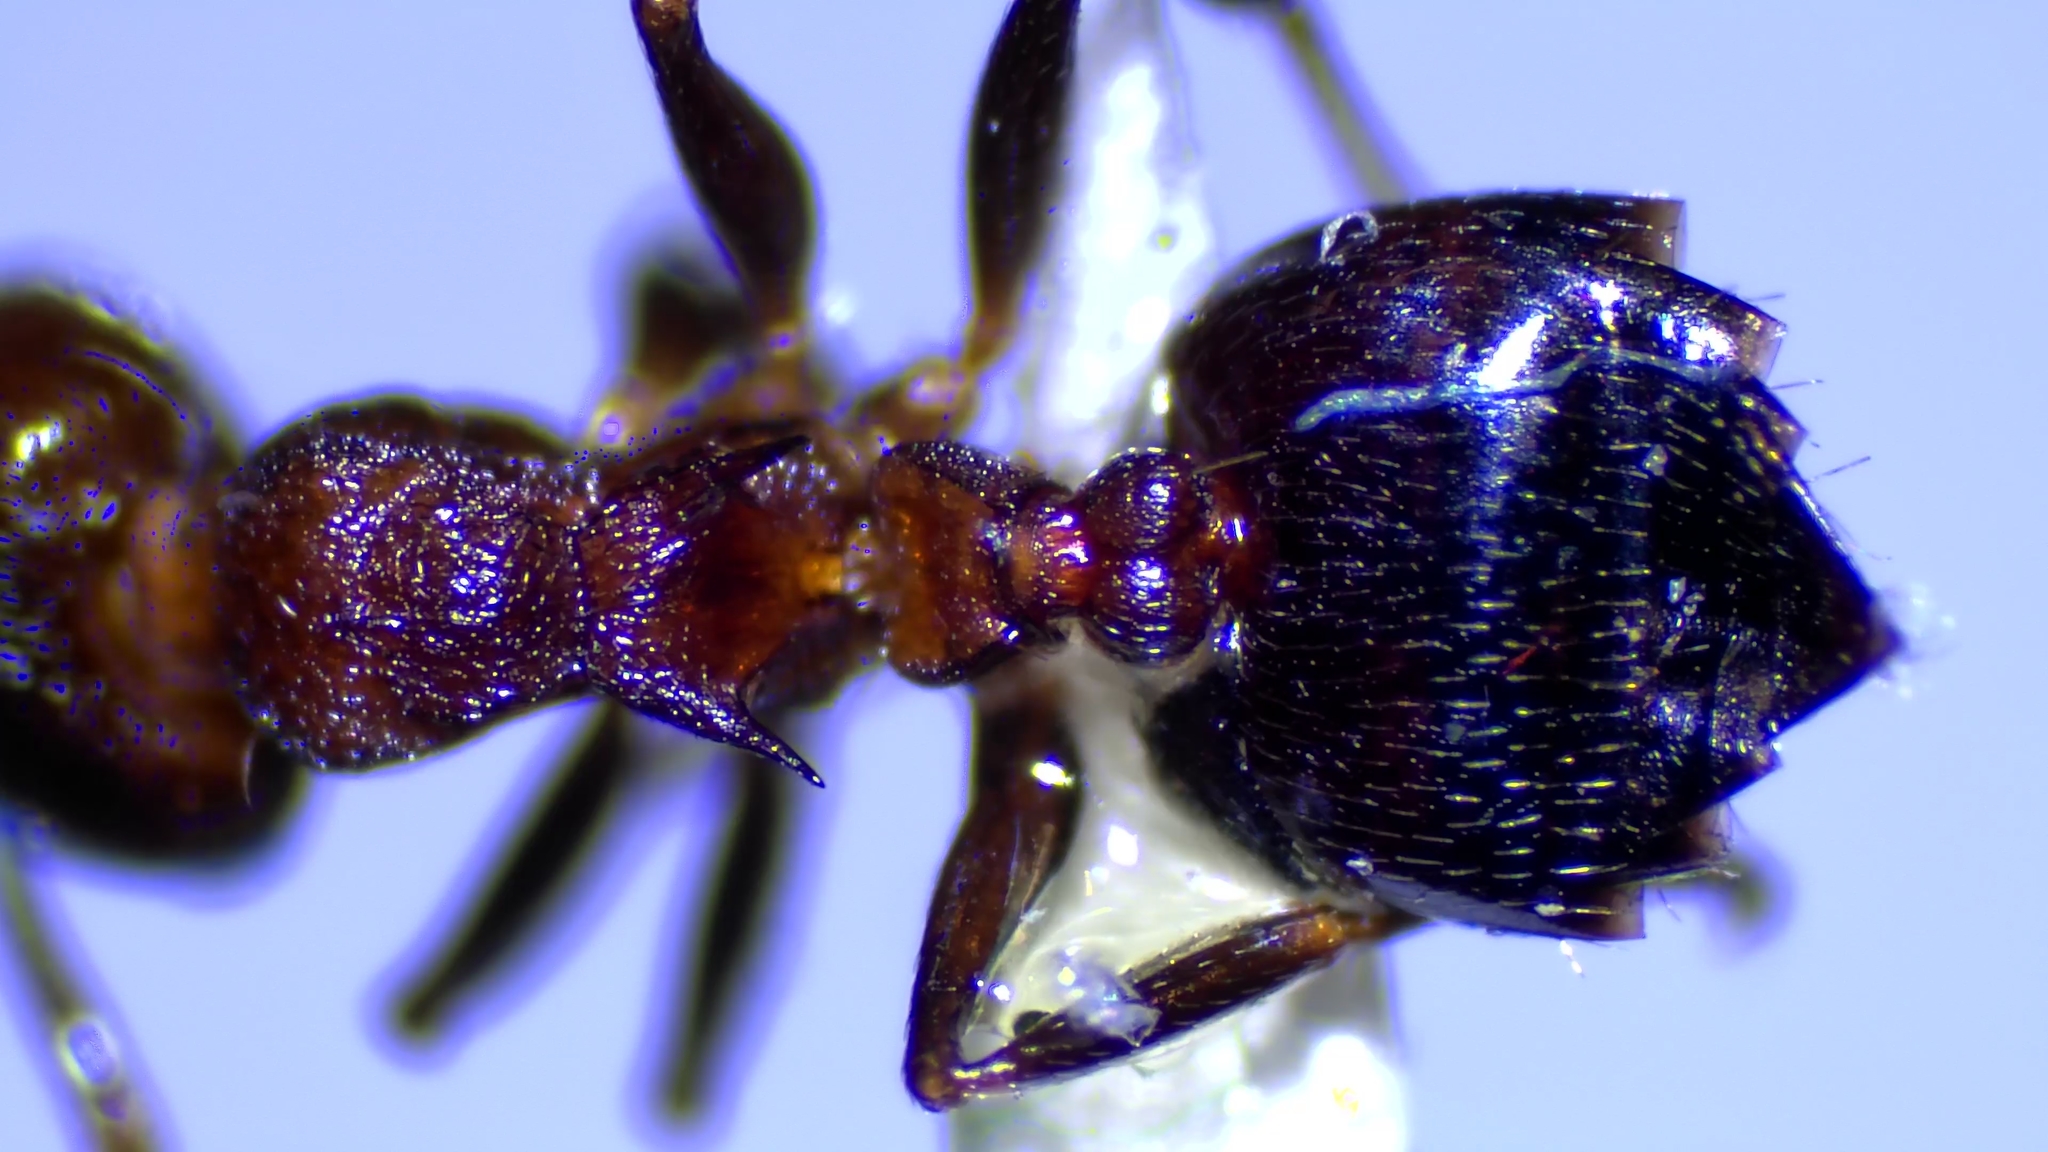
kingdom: Animalia
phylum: Arthropoda
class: Insecta
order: Hymenoptera
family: Formicidae
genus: Crematogaster
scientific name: Crematogaster cerasi
